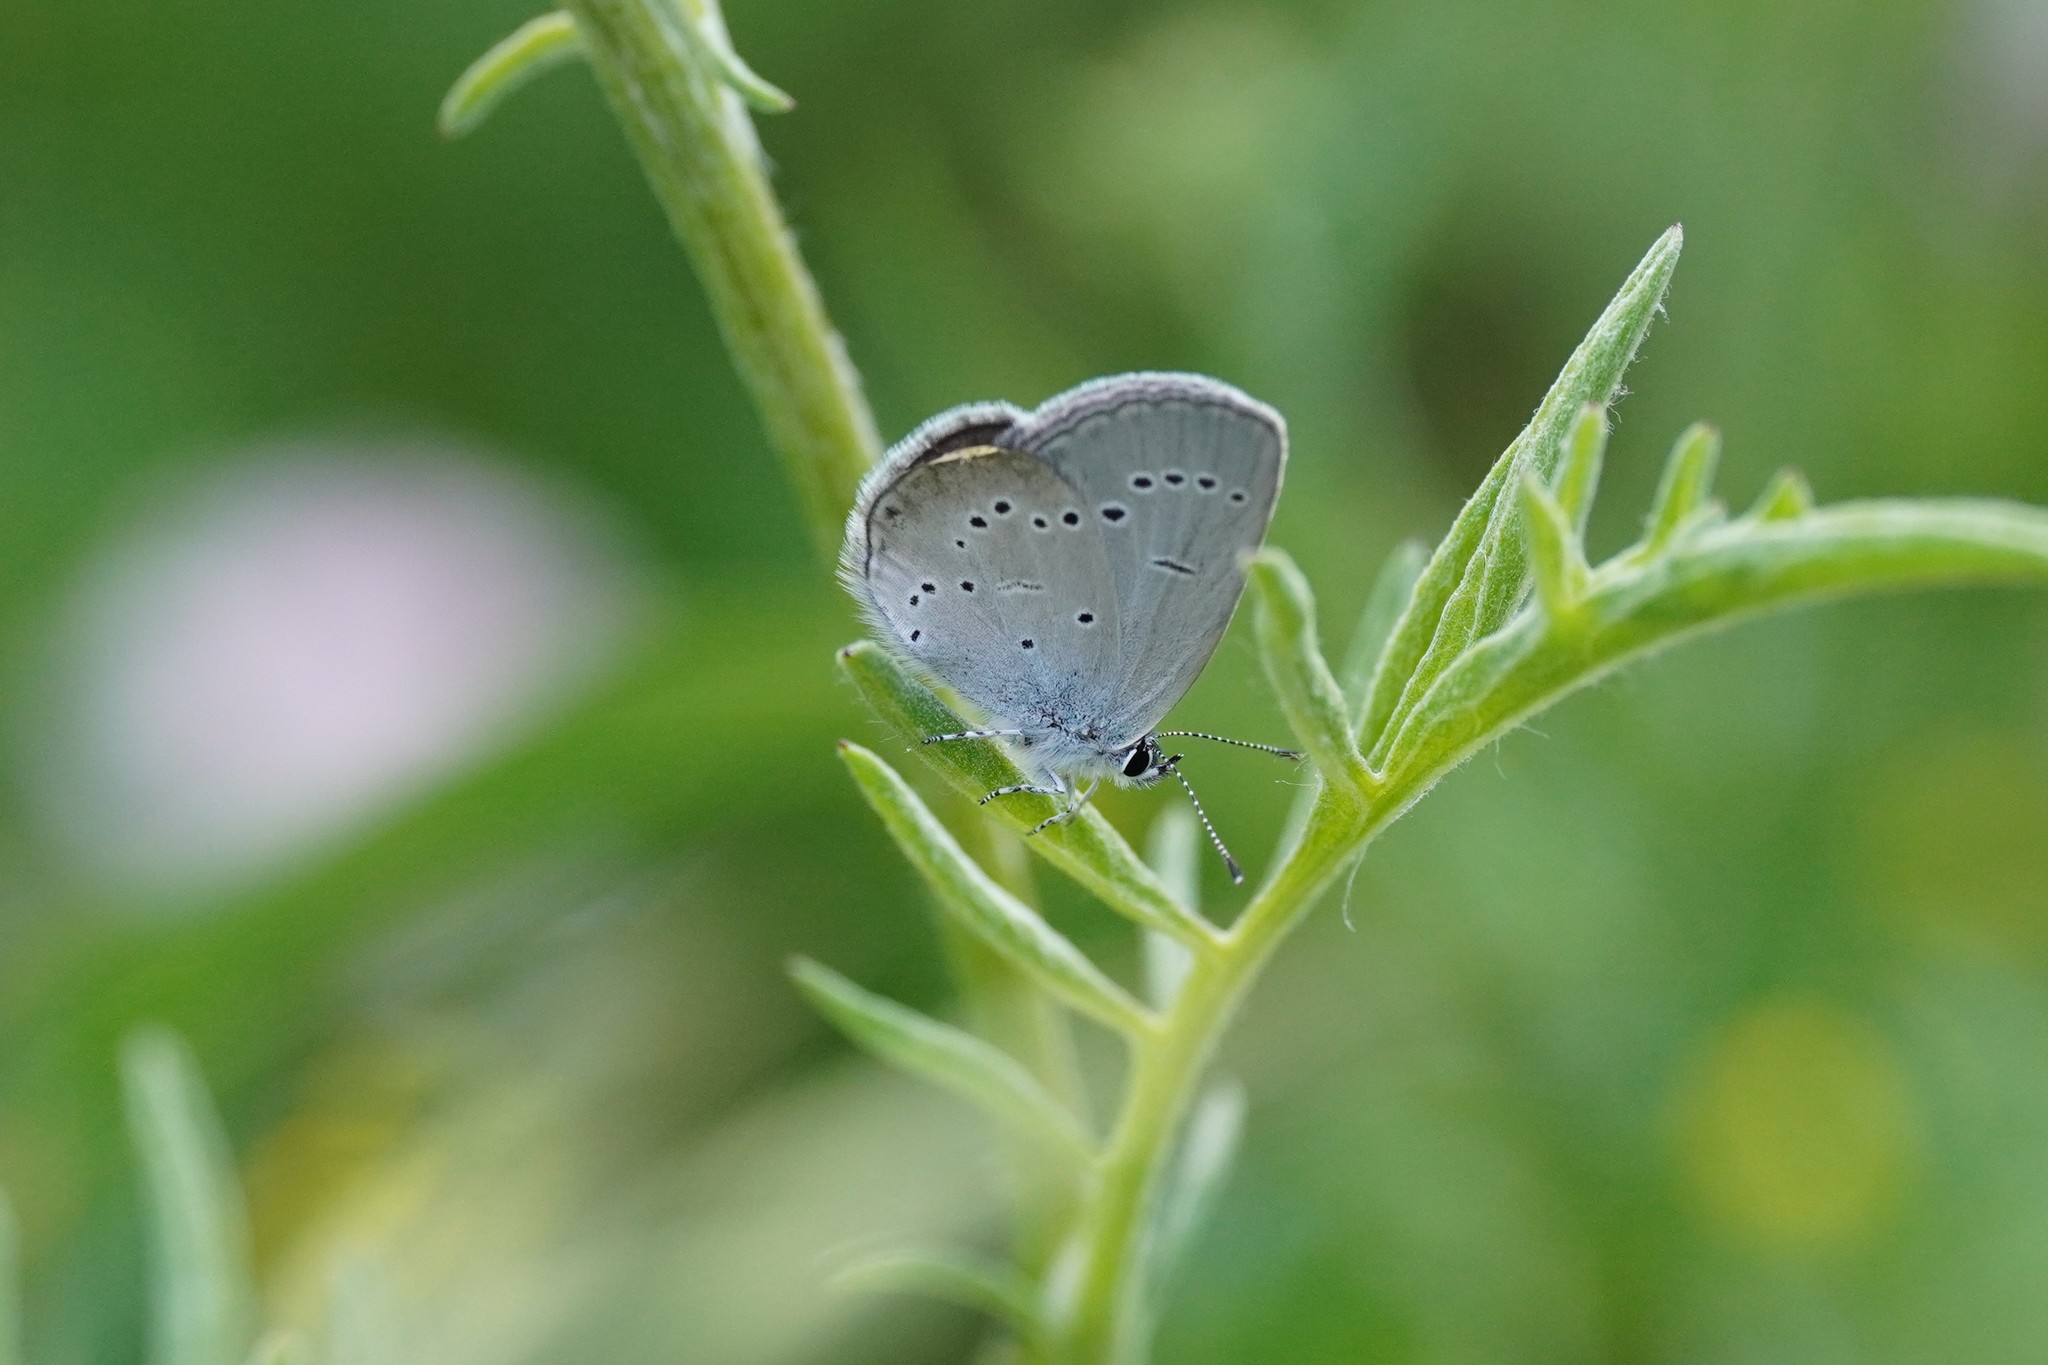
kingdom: Animalia
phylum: Arthropoda
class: Insecta
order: Lepidoptera
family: Lycaenidae
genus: Cupido
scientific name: Cupido minimus
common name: Small blue
